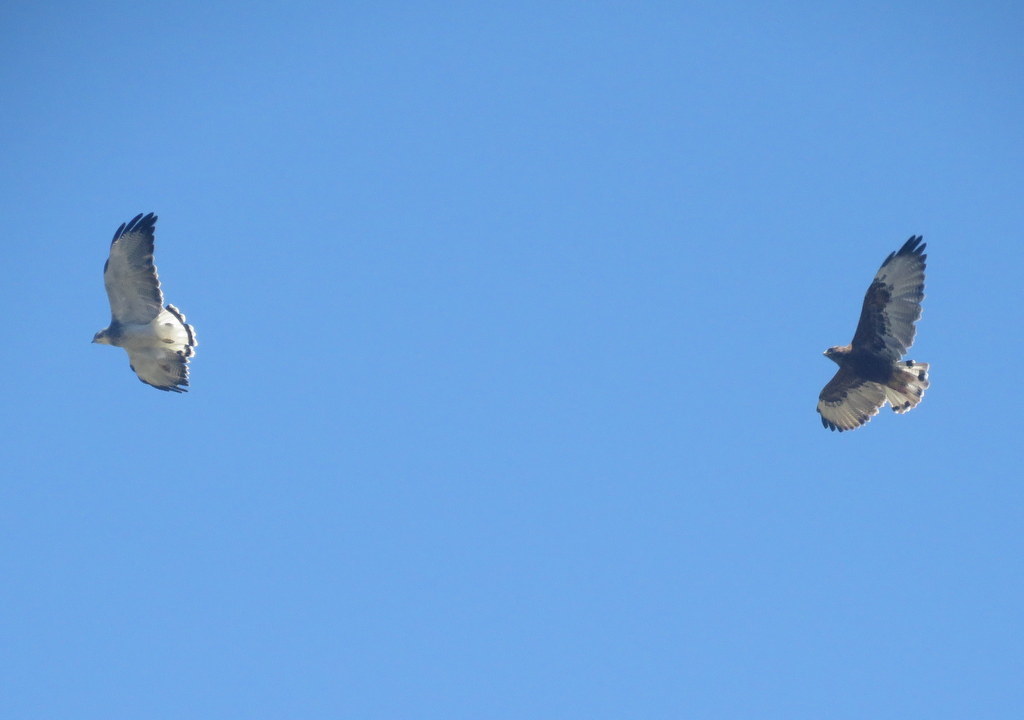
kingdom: Animalia
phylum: Chordata
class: Aves
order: Accipitriformes
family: Accipitridae
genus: Buteo
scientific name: Buteo polyosoma
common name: Variable hawk
